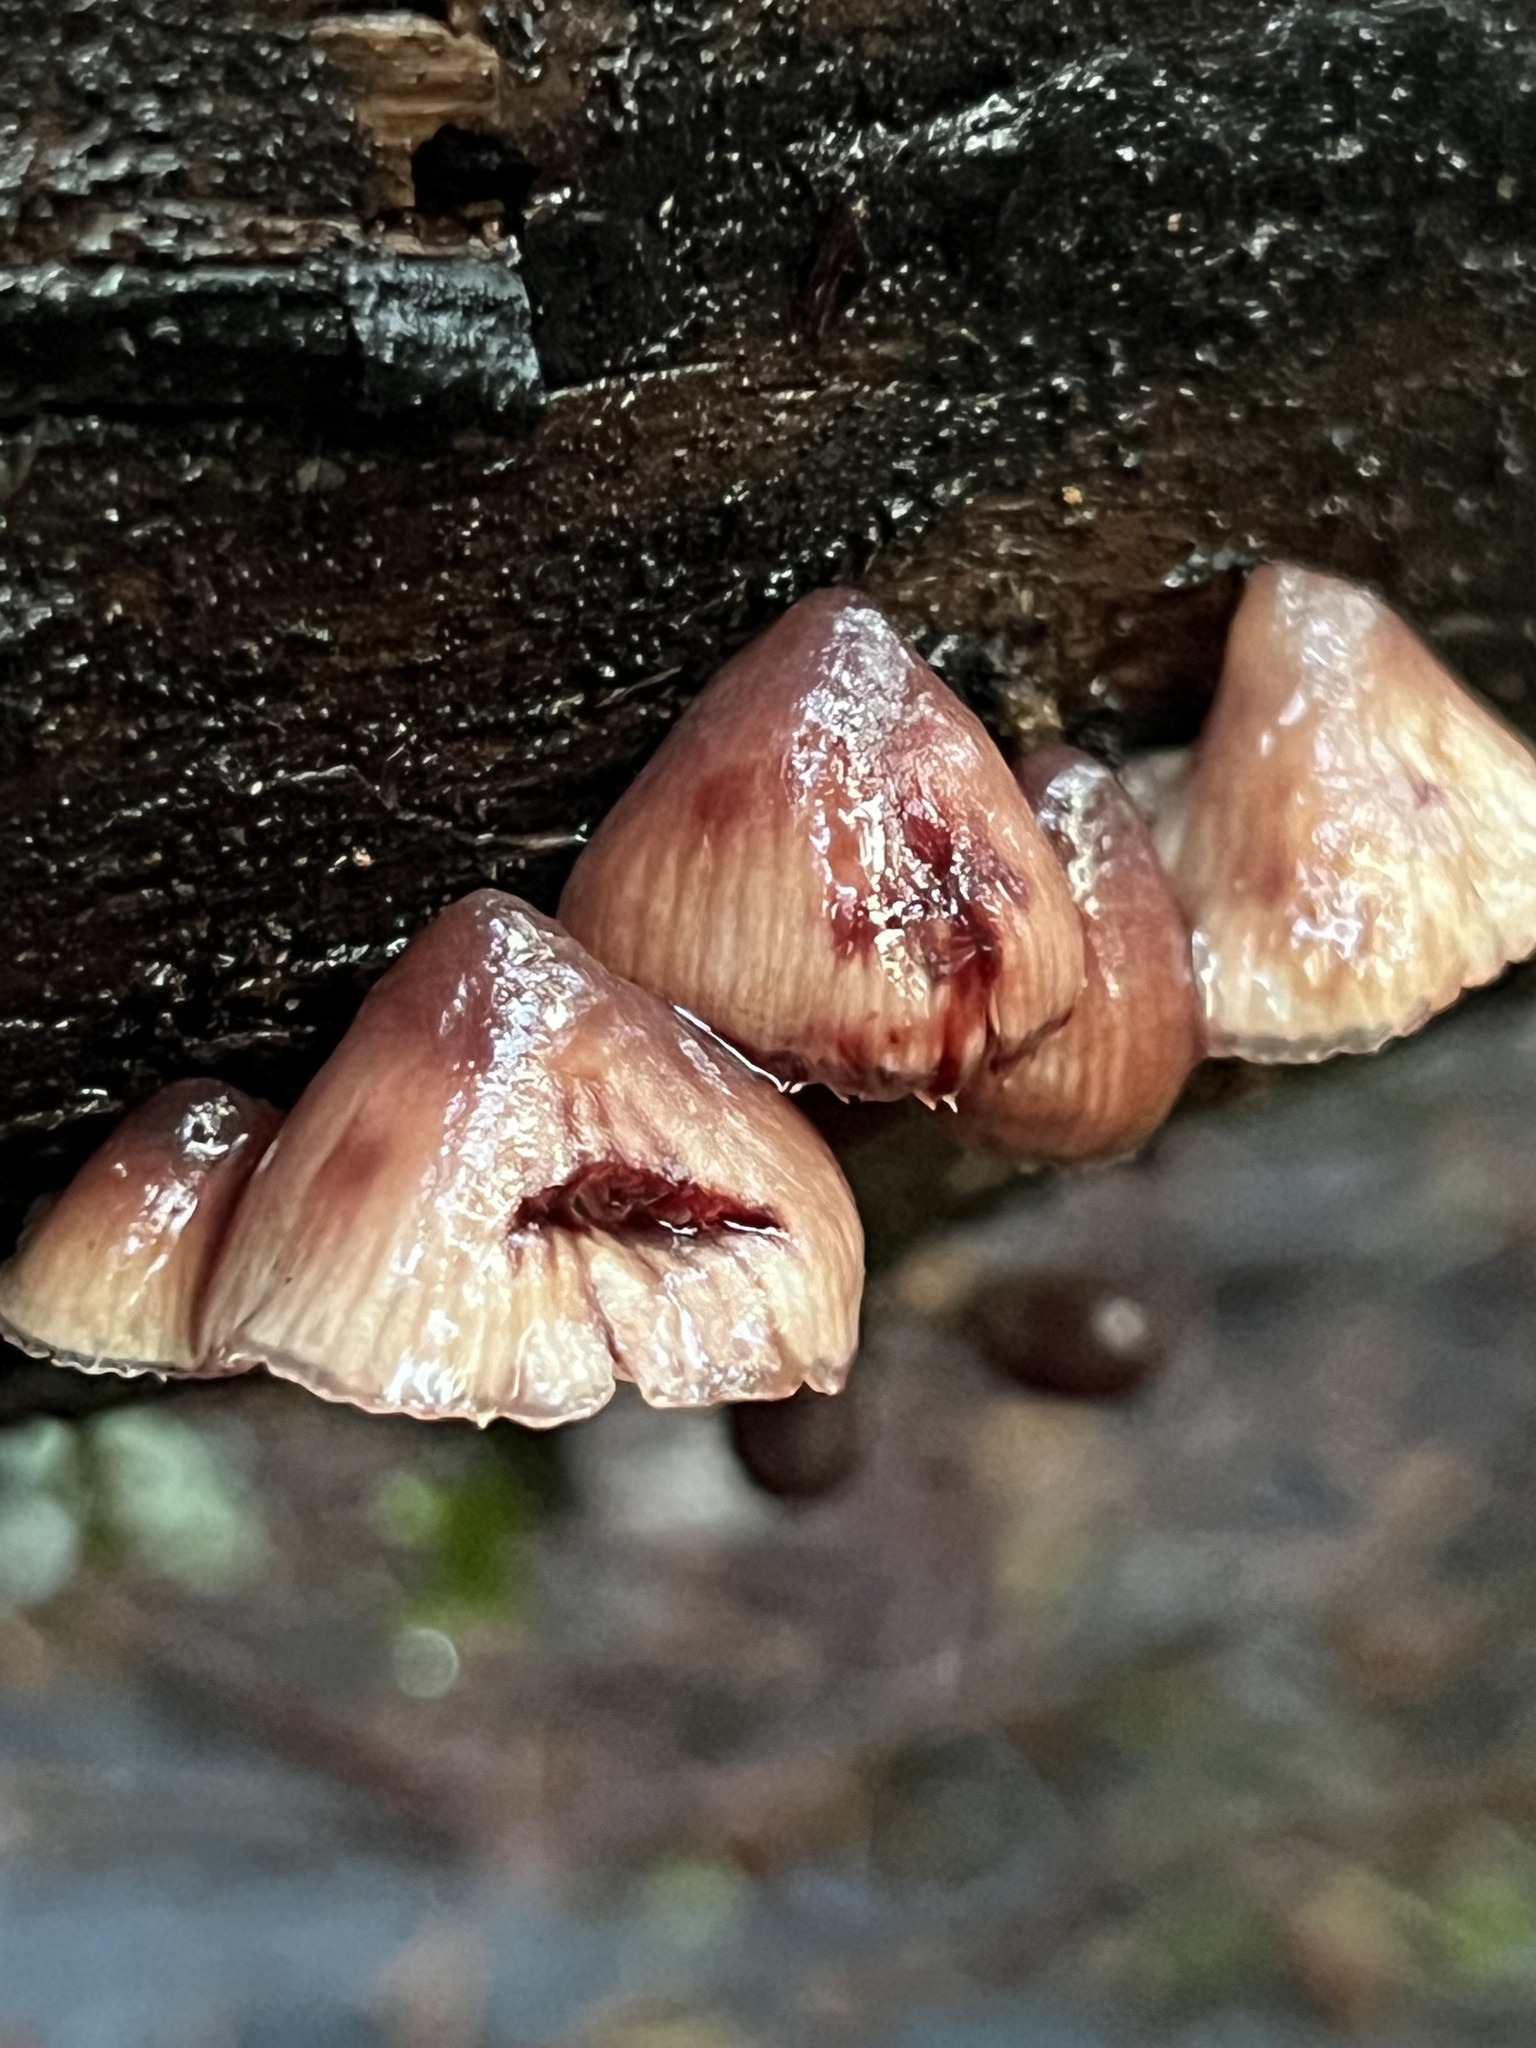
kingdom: Fungi
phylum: Basidiomycota
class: Agaricomycetes
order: Agaricales
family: Mycenaceae
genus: Mycena
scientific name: Mycena haematopus
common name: Burgundydrop bonnet
